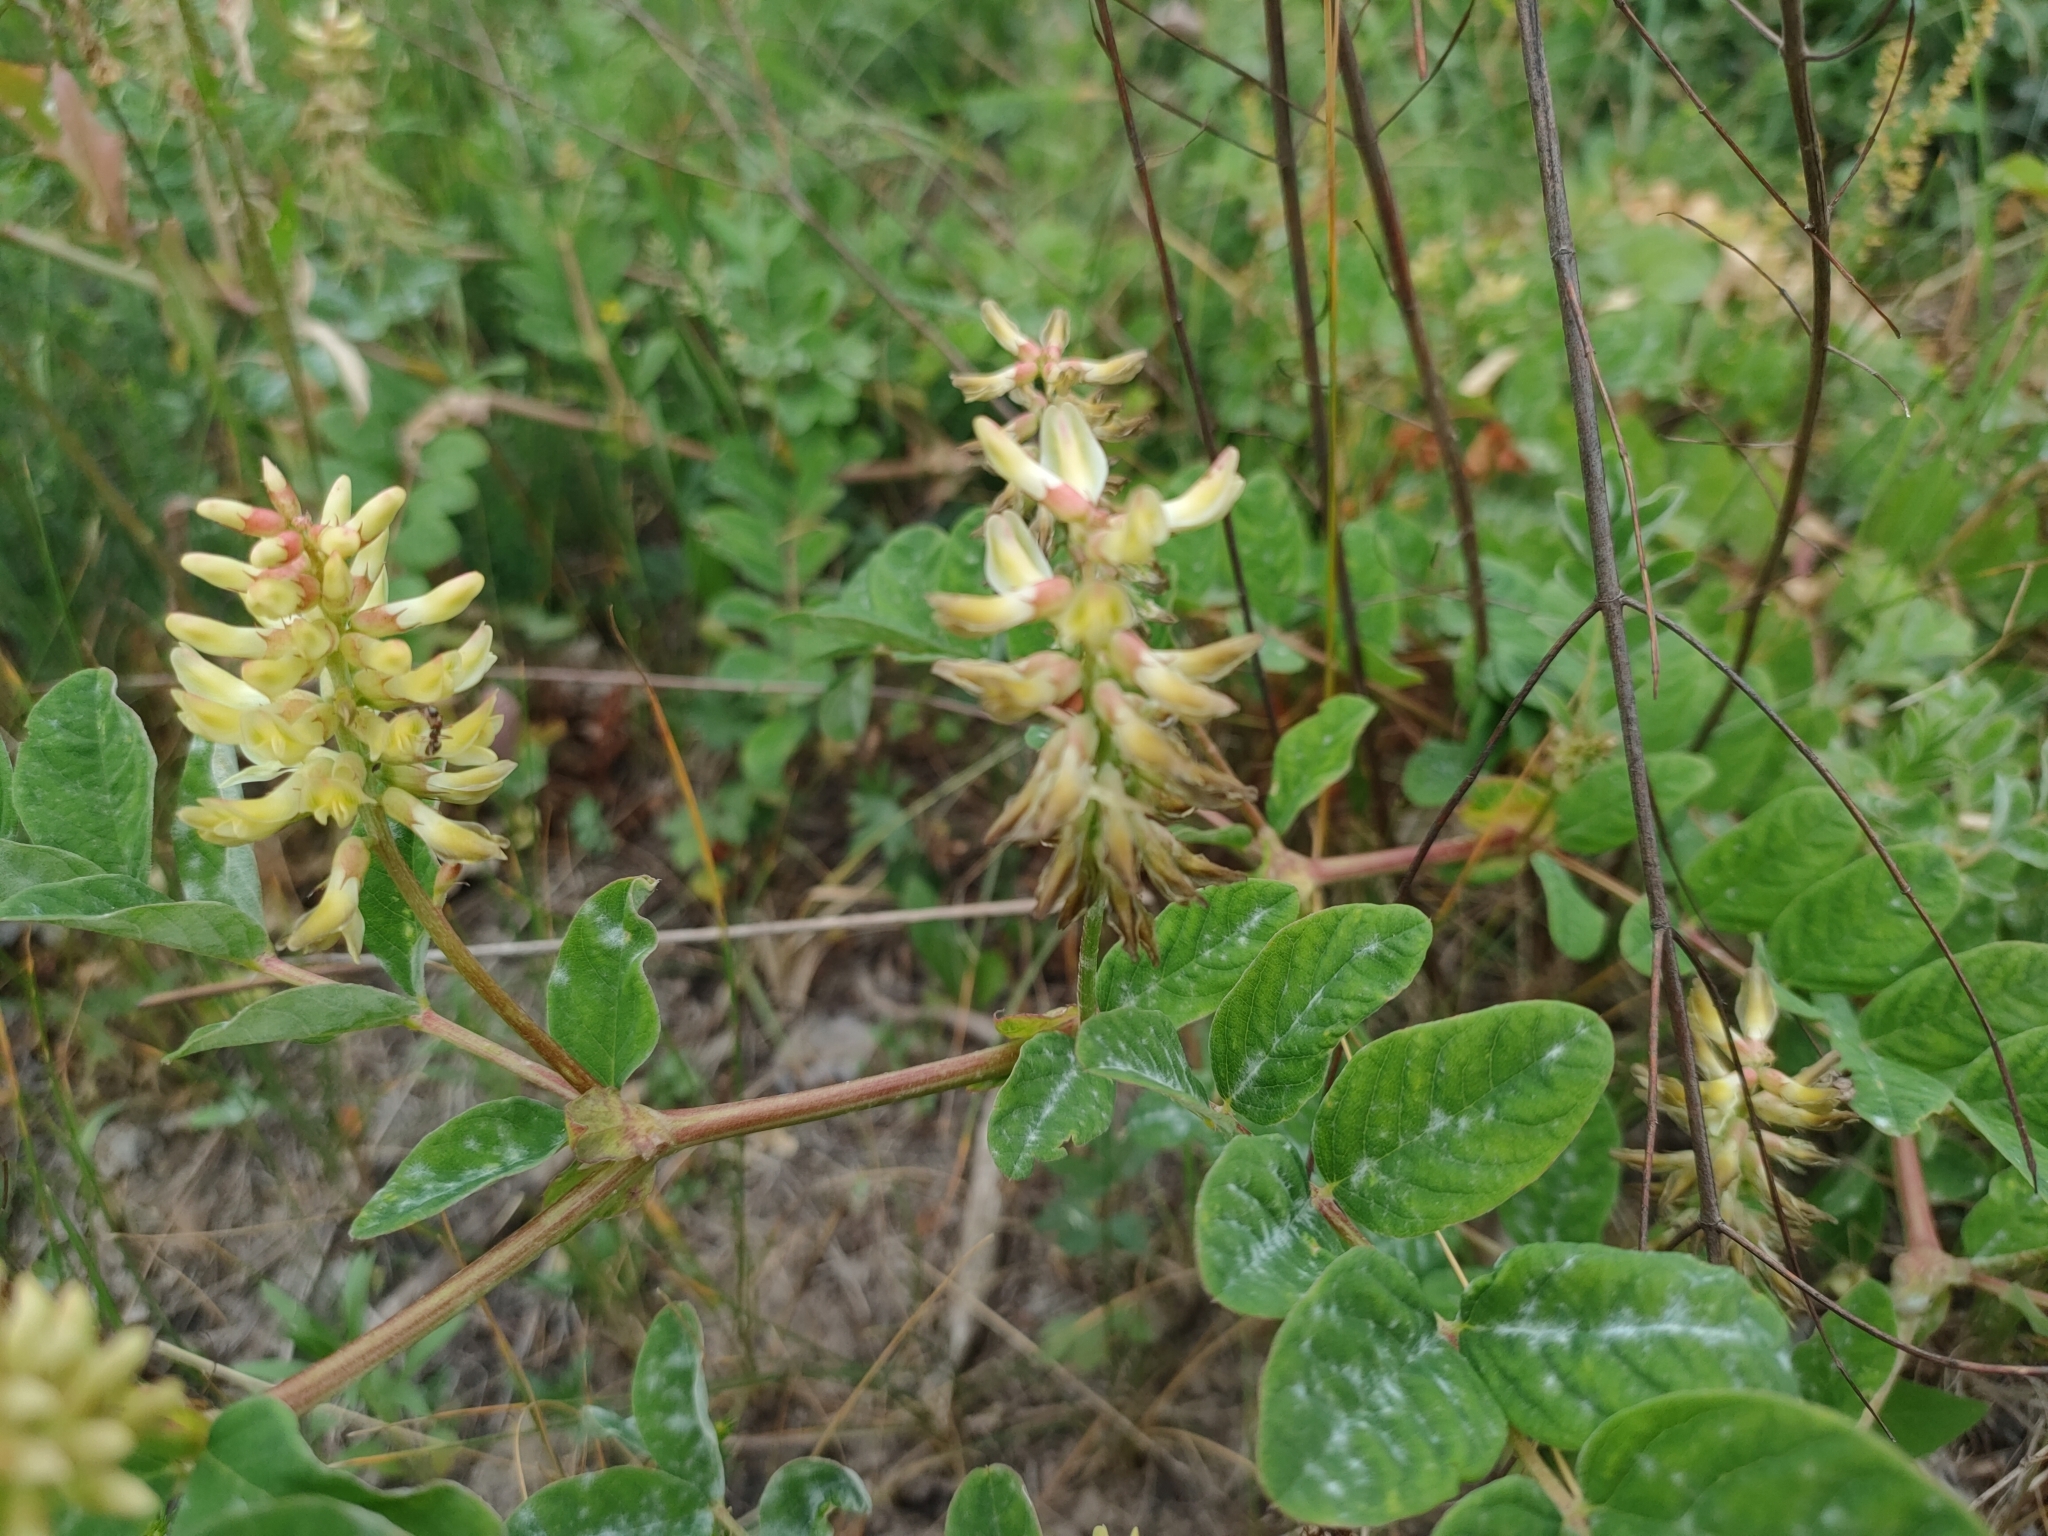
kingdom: Plantae
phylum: Tracheophyta
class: Magnoliopsida
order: Fabales
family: Fabaceae
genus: Astragalus
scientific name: Astragalus glycyphyllos
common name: Wild liquorice
